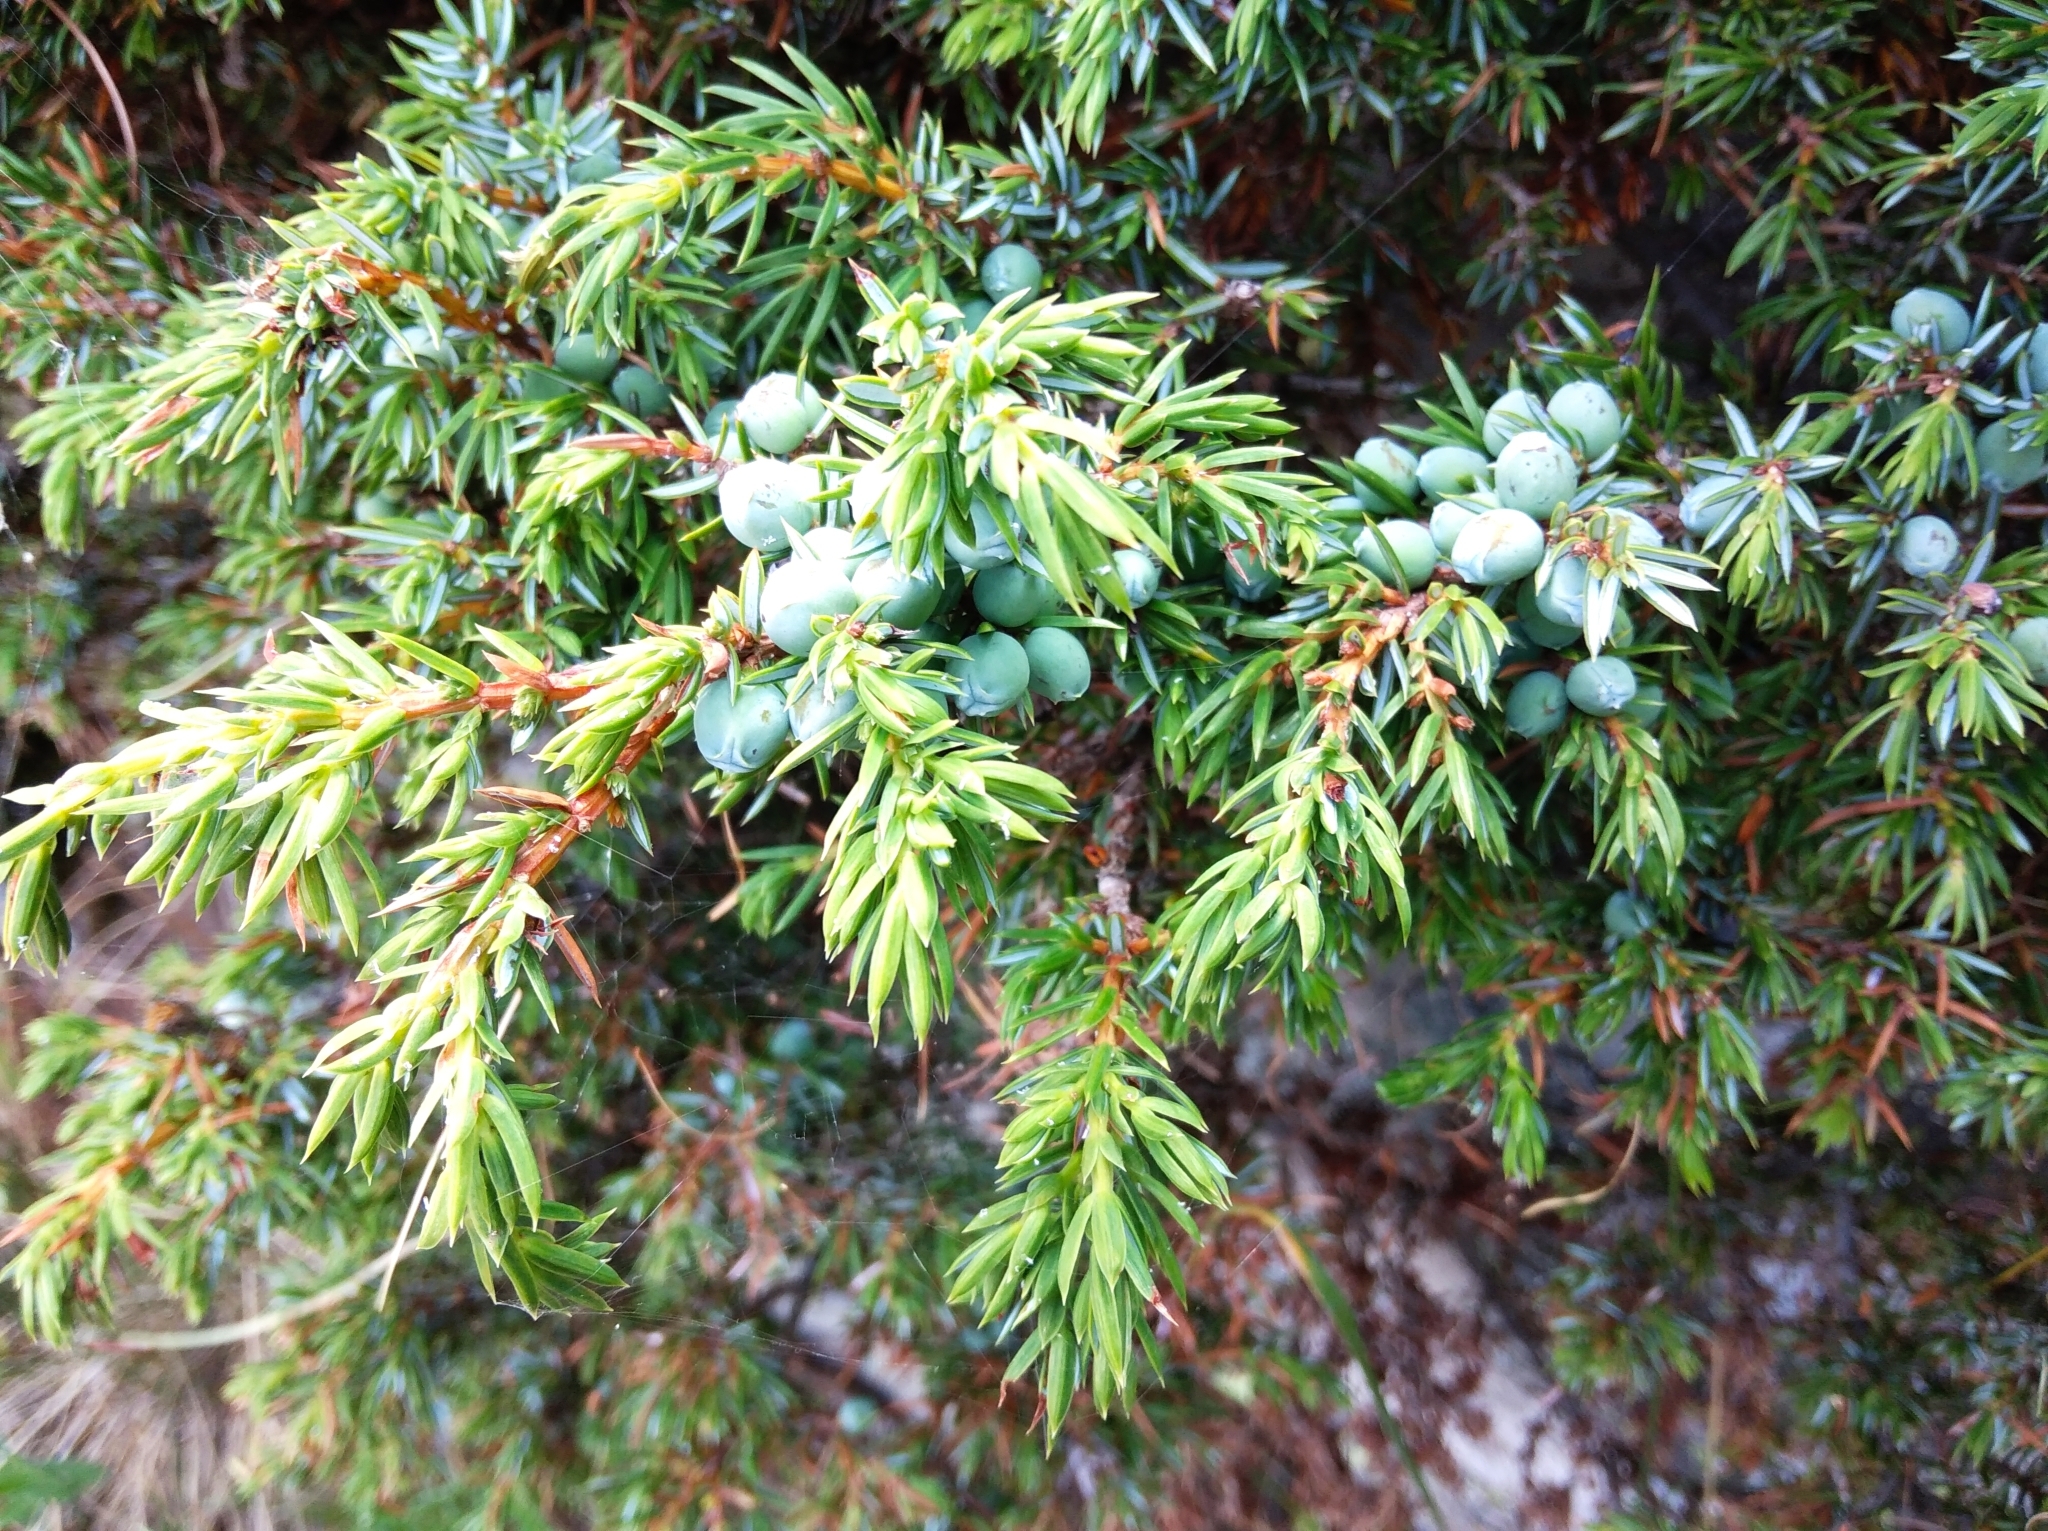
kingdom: Plantae
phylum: Tracheophyta
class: Pinopsida
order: Pinales
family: Cupressaceae
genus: Juniperus
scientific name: Juniperus communis
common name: Common juniper
